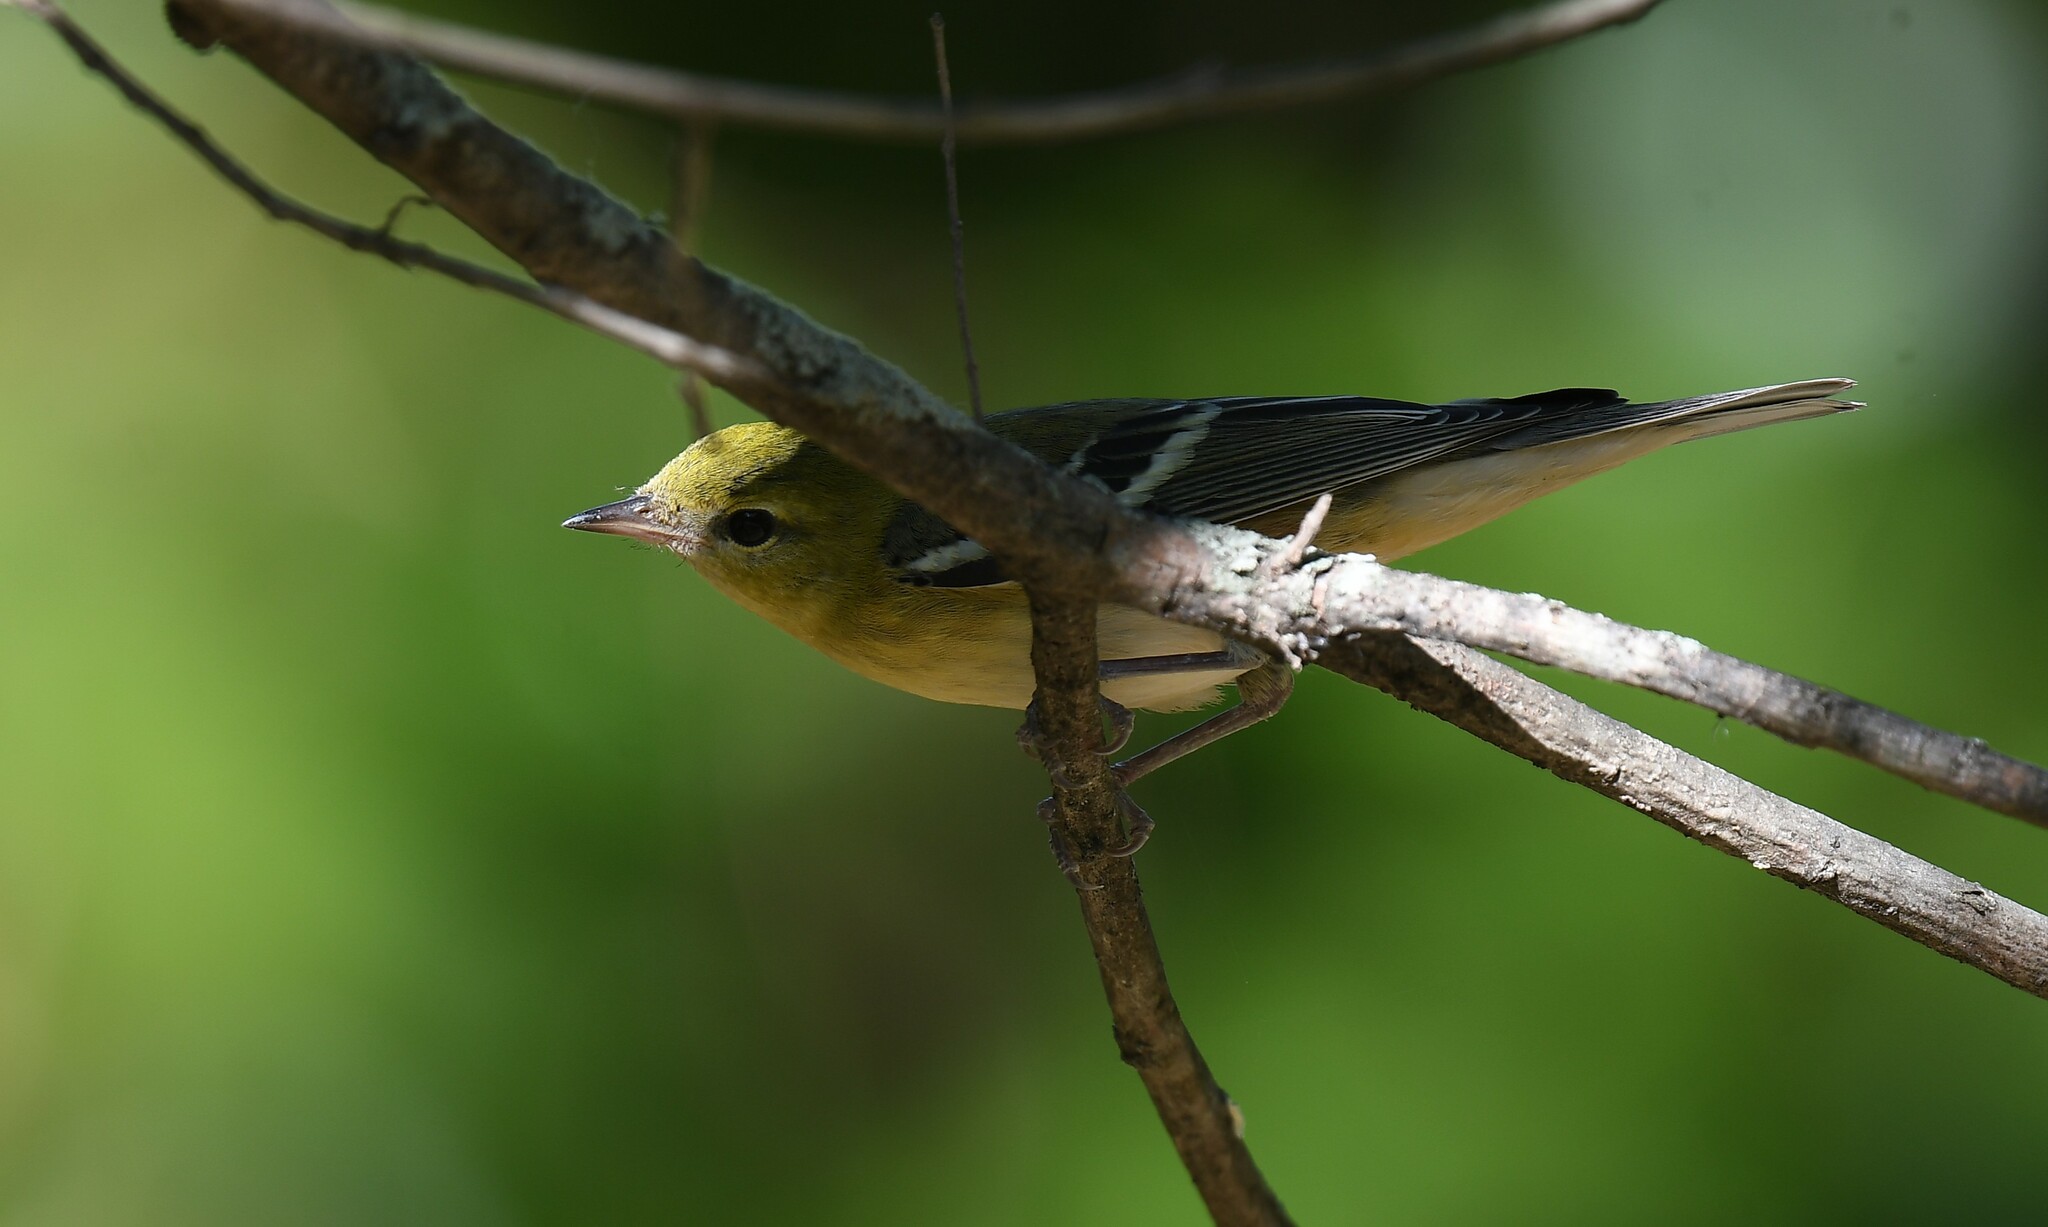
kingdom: Animalia
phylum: Chordata
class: Aves
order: Passeriformes
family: Parulidae
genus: Setophaga
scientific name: Setophaga castanea
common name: Bay-breasted warbler
